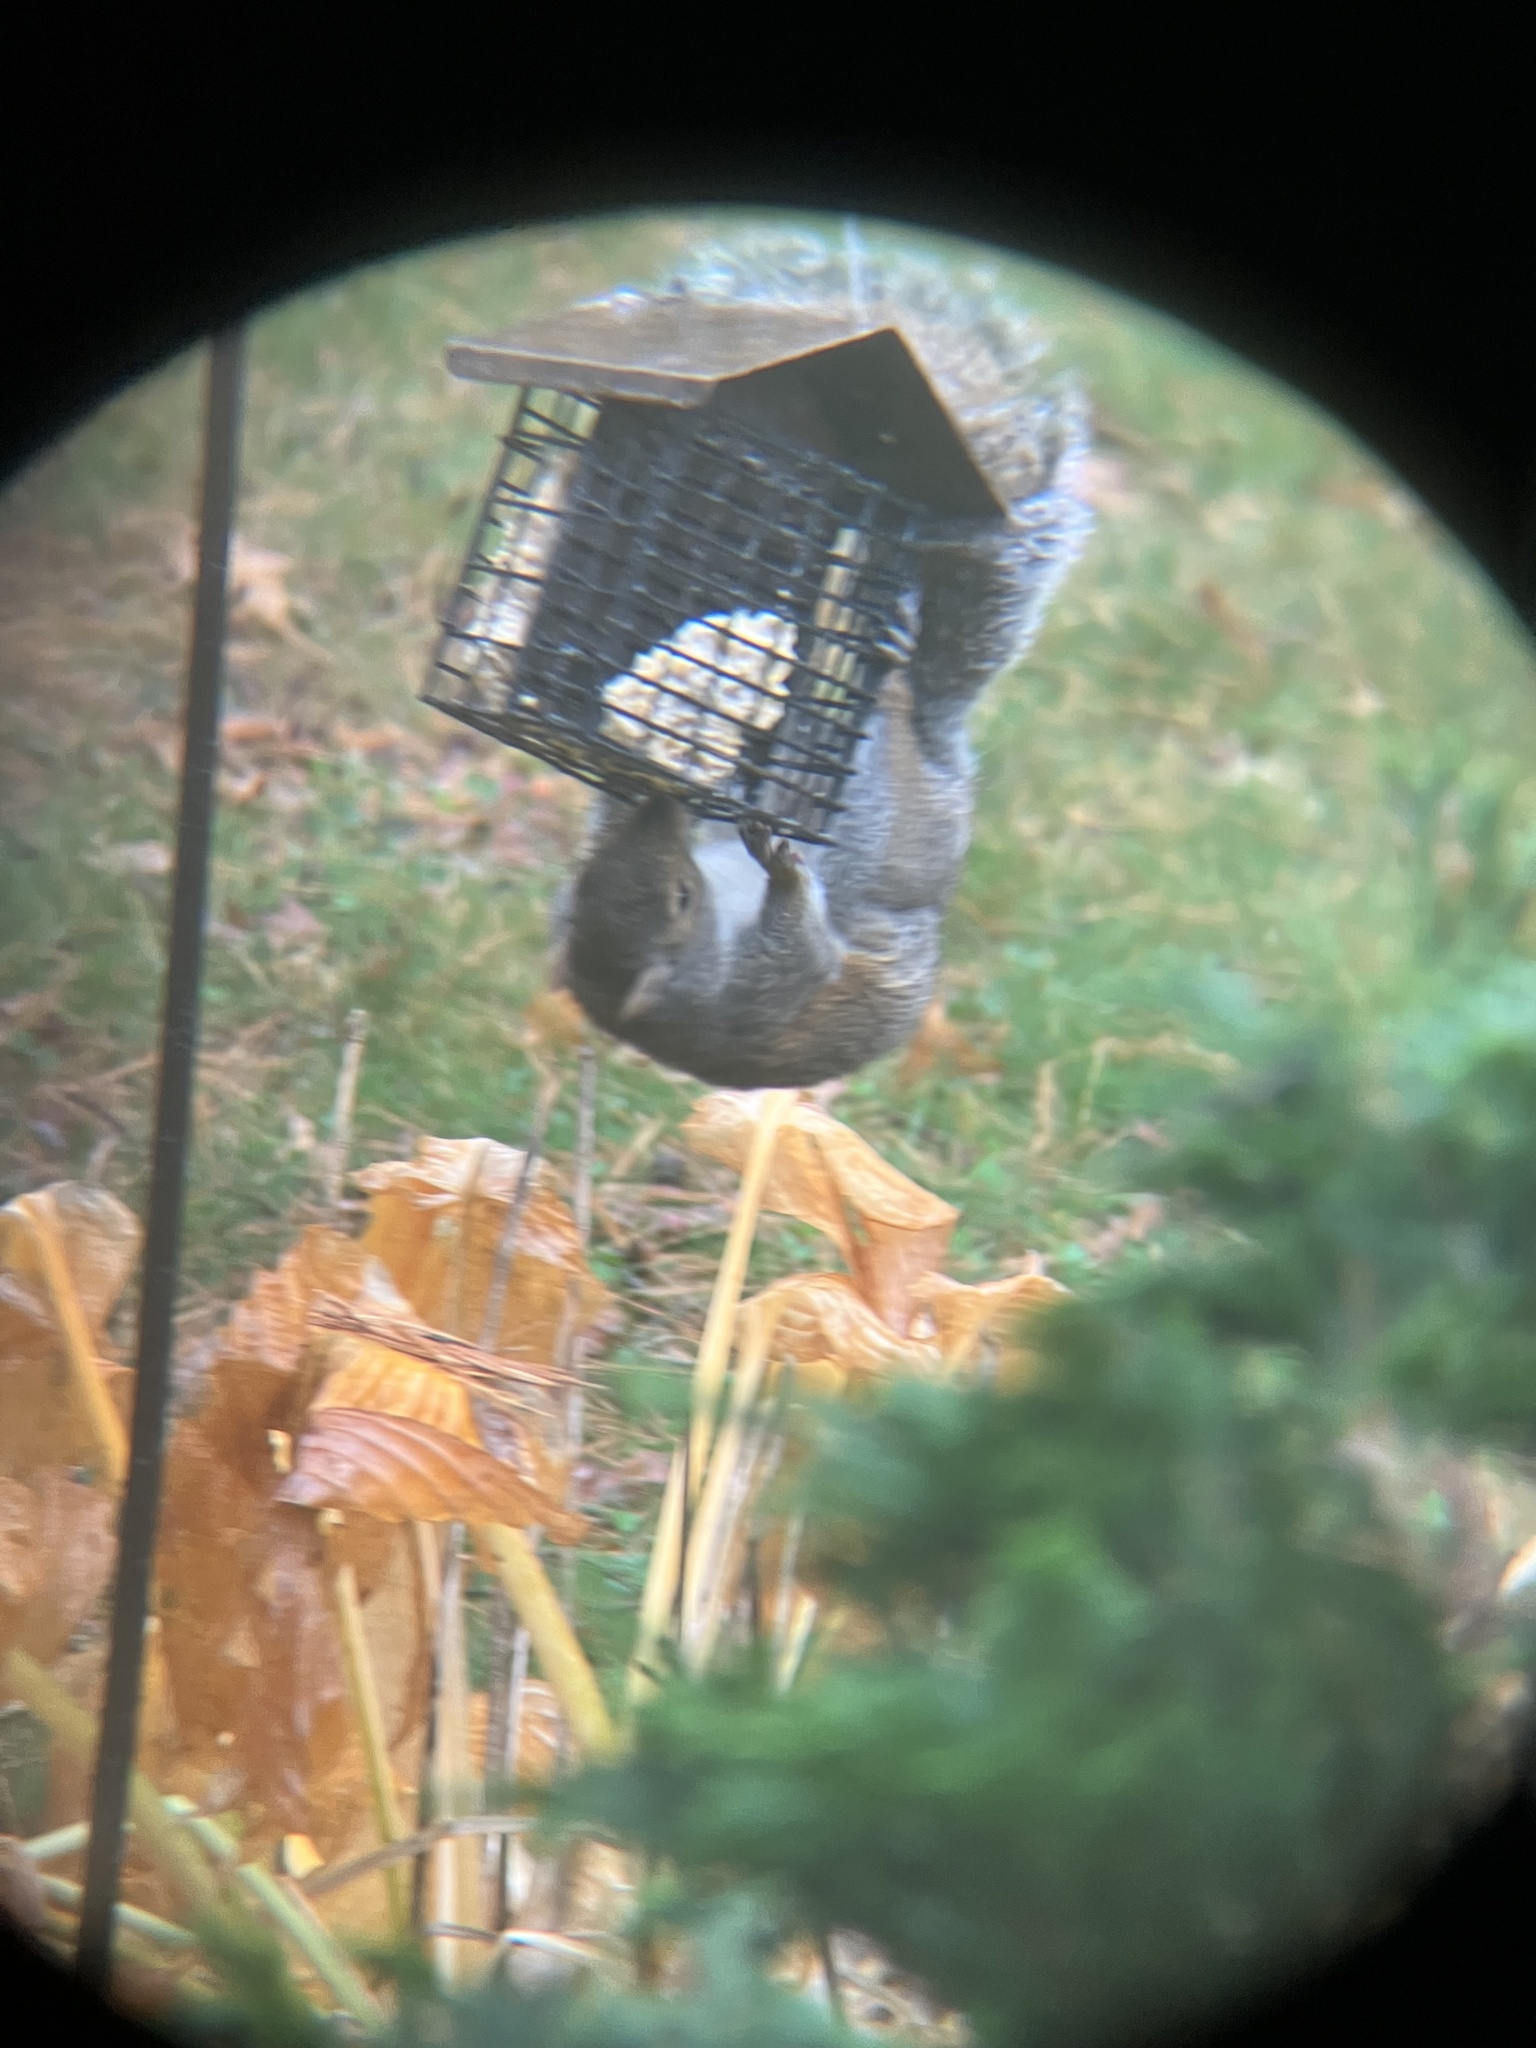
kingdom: Animalia
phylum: Chordata
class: Mammalia
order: Rodentia
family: Sciuridae
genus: Sciurus
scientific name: Sciurus carolinensis
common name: Eastern gray squirrel
